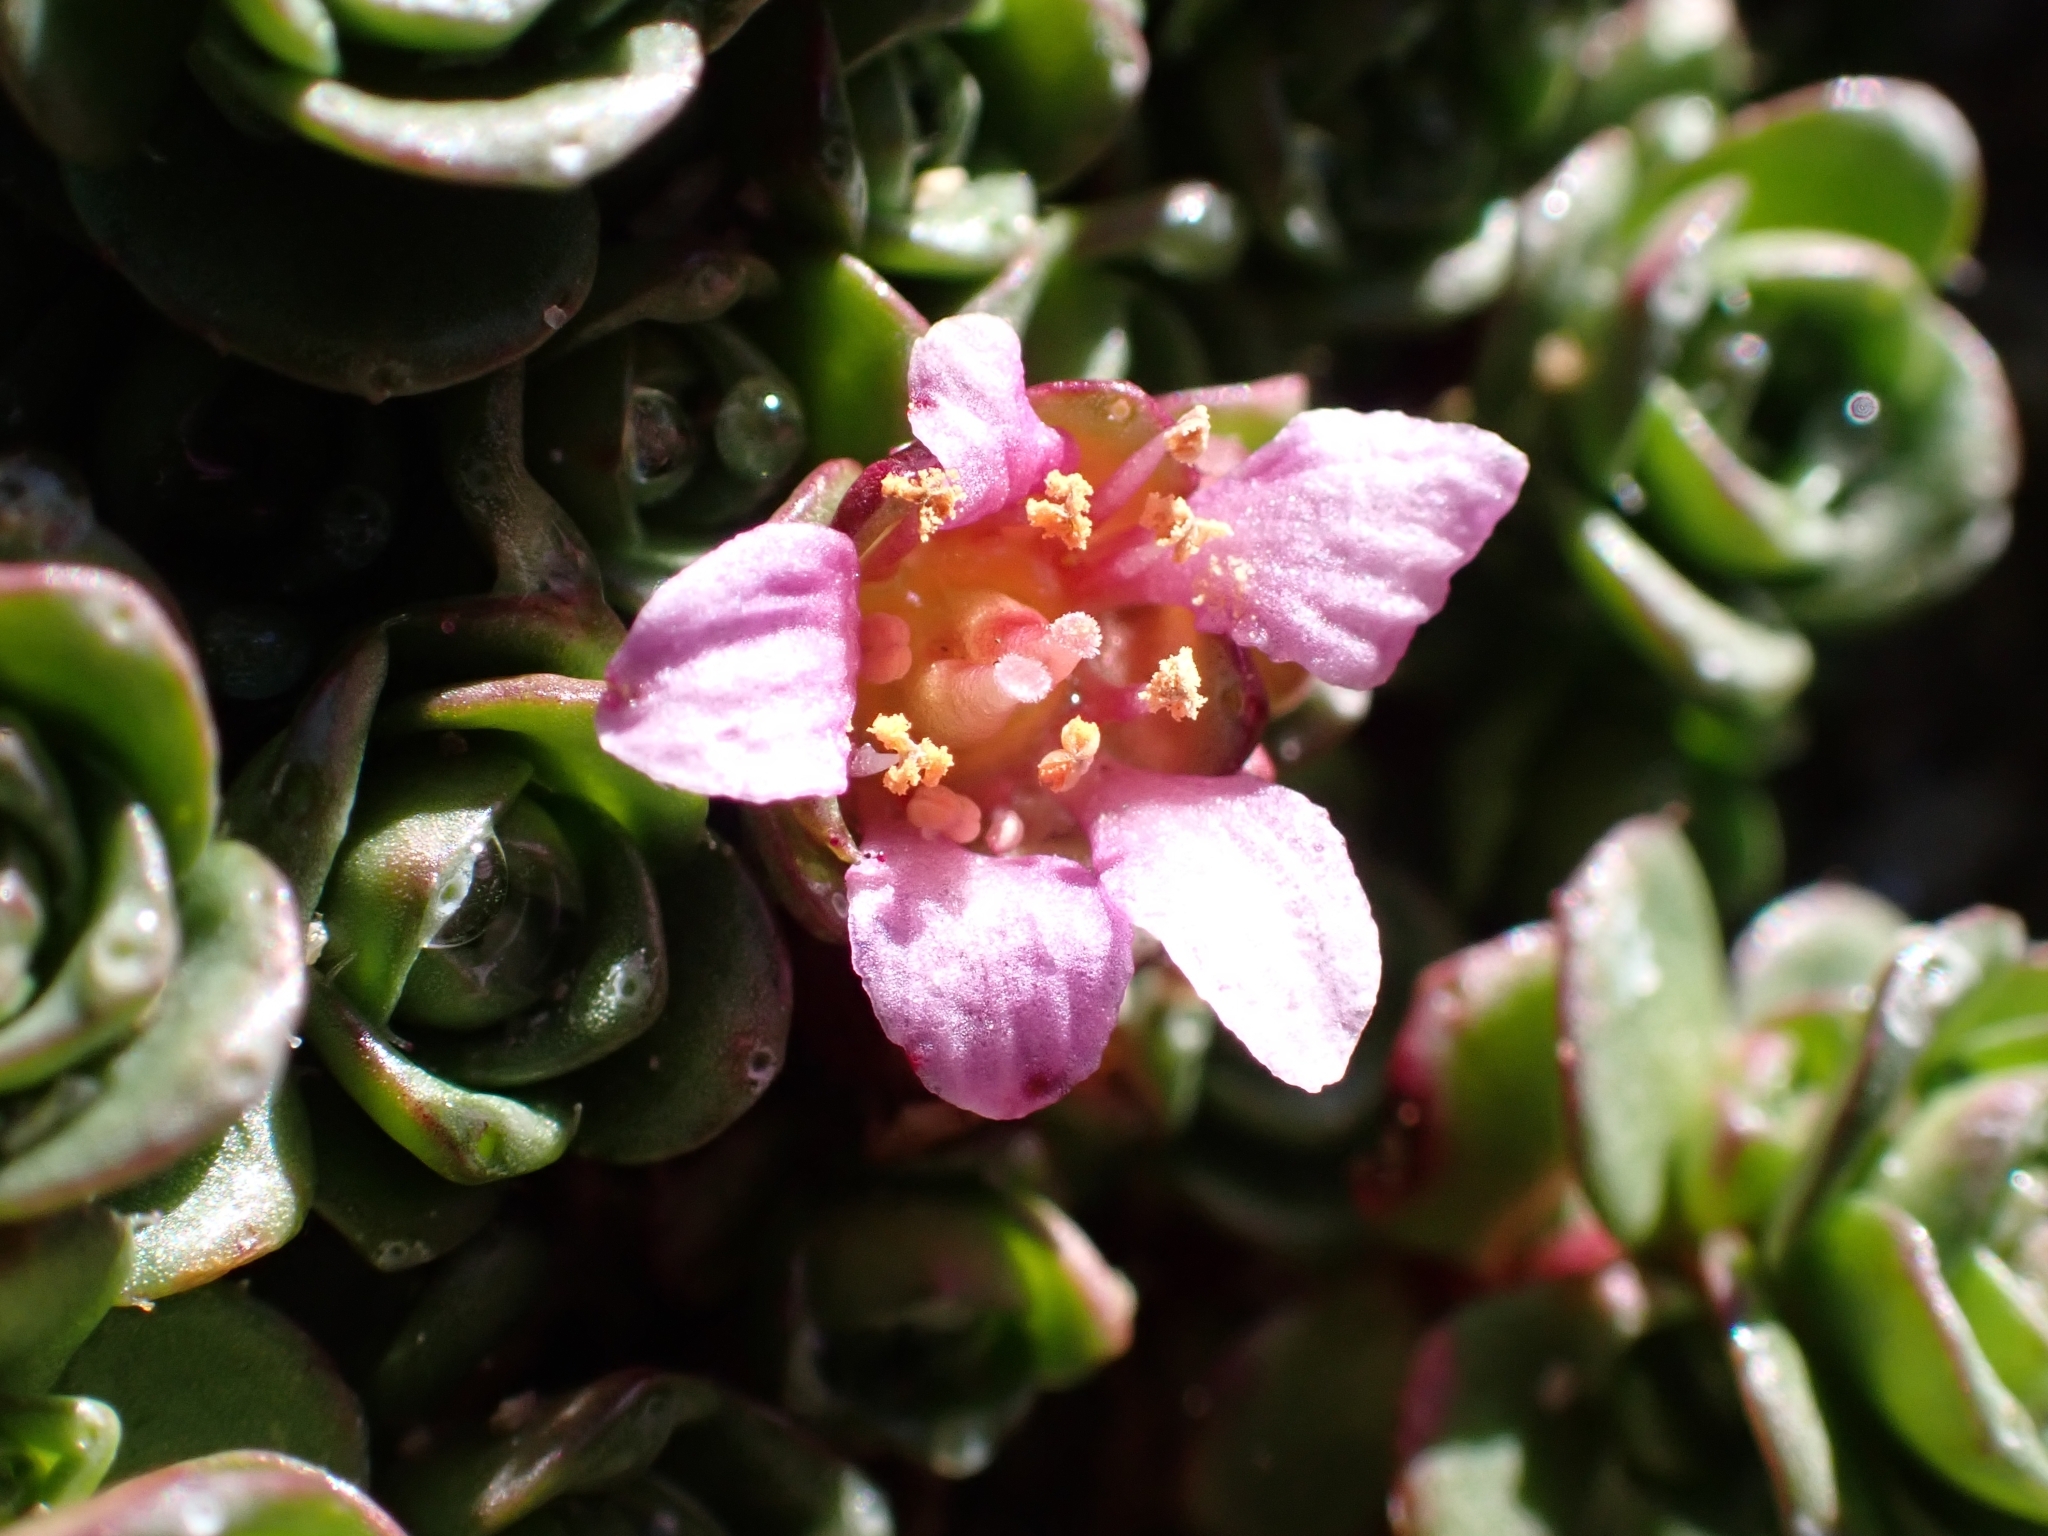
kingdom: Plantae
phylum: Tracheophyta
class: Magnoliopsida
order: Saxifragales
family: Saxifragaceae
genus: Saxifraga
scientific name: Saxifraga biflora
